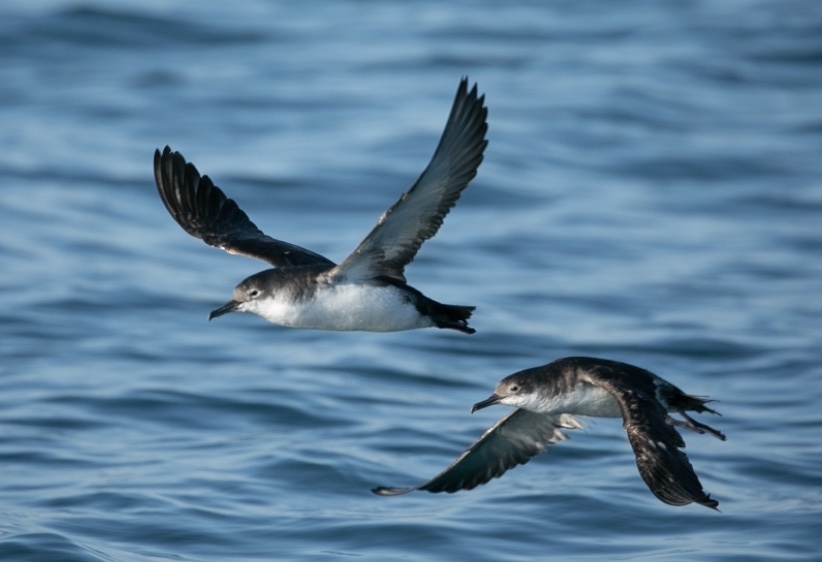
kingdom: Animalia
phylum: Chordata
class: Aves
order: Procellariiformes
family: Procellariidae
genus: Puffinus
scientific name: Puffinus yelkouan
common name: Yelkouan shearwater
